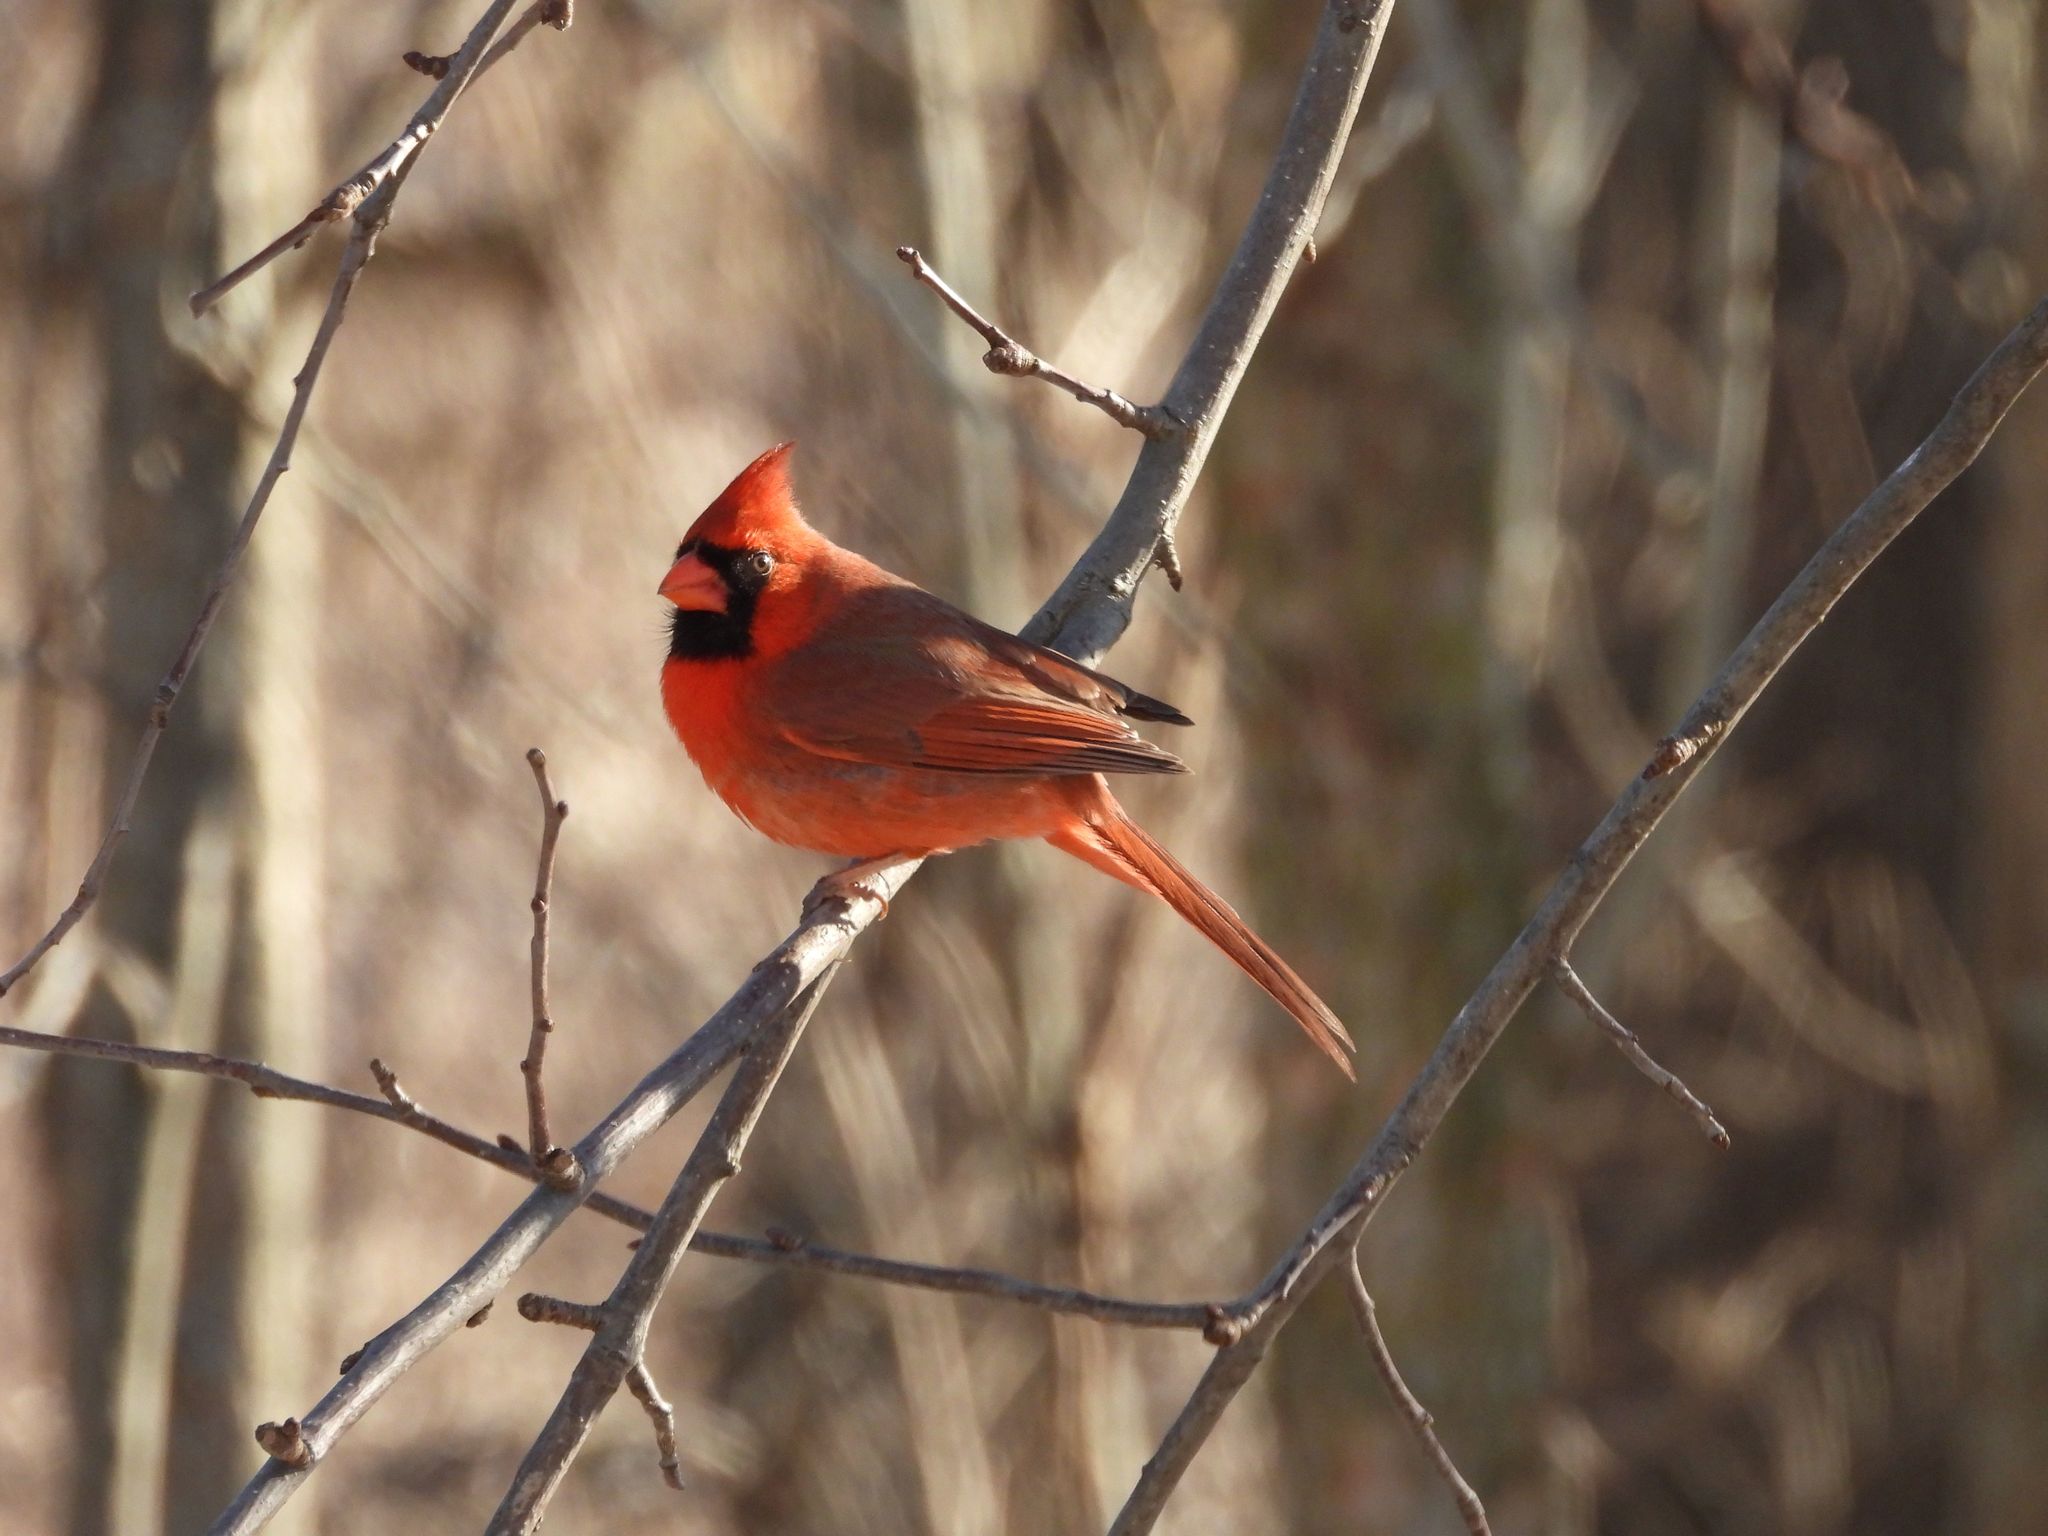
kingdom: Animalia
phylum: Chordata
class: Aves
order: Passeriformes
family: Cardinalidae
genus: Cardinalis
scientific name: Cardinalis cardinalis
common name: Northern cardinal
